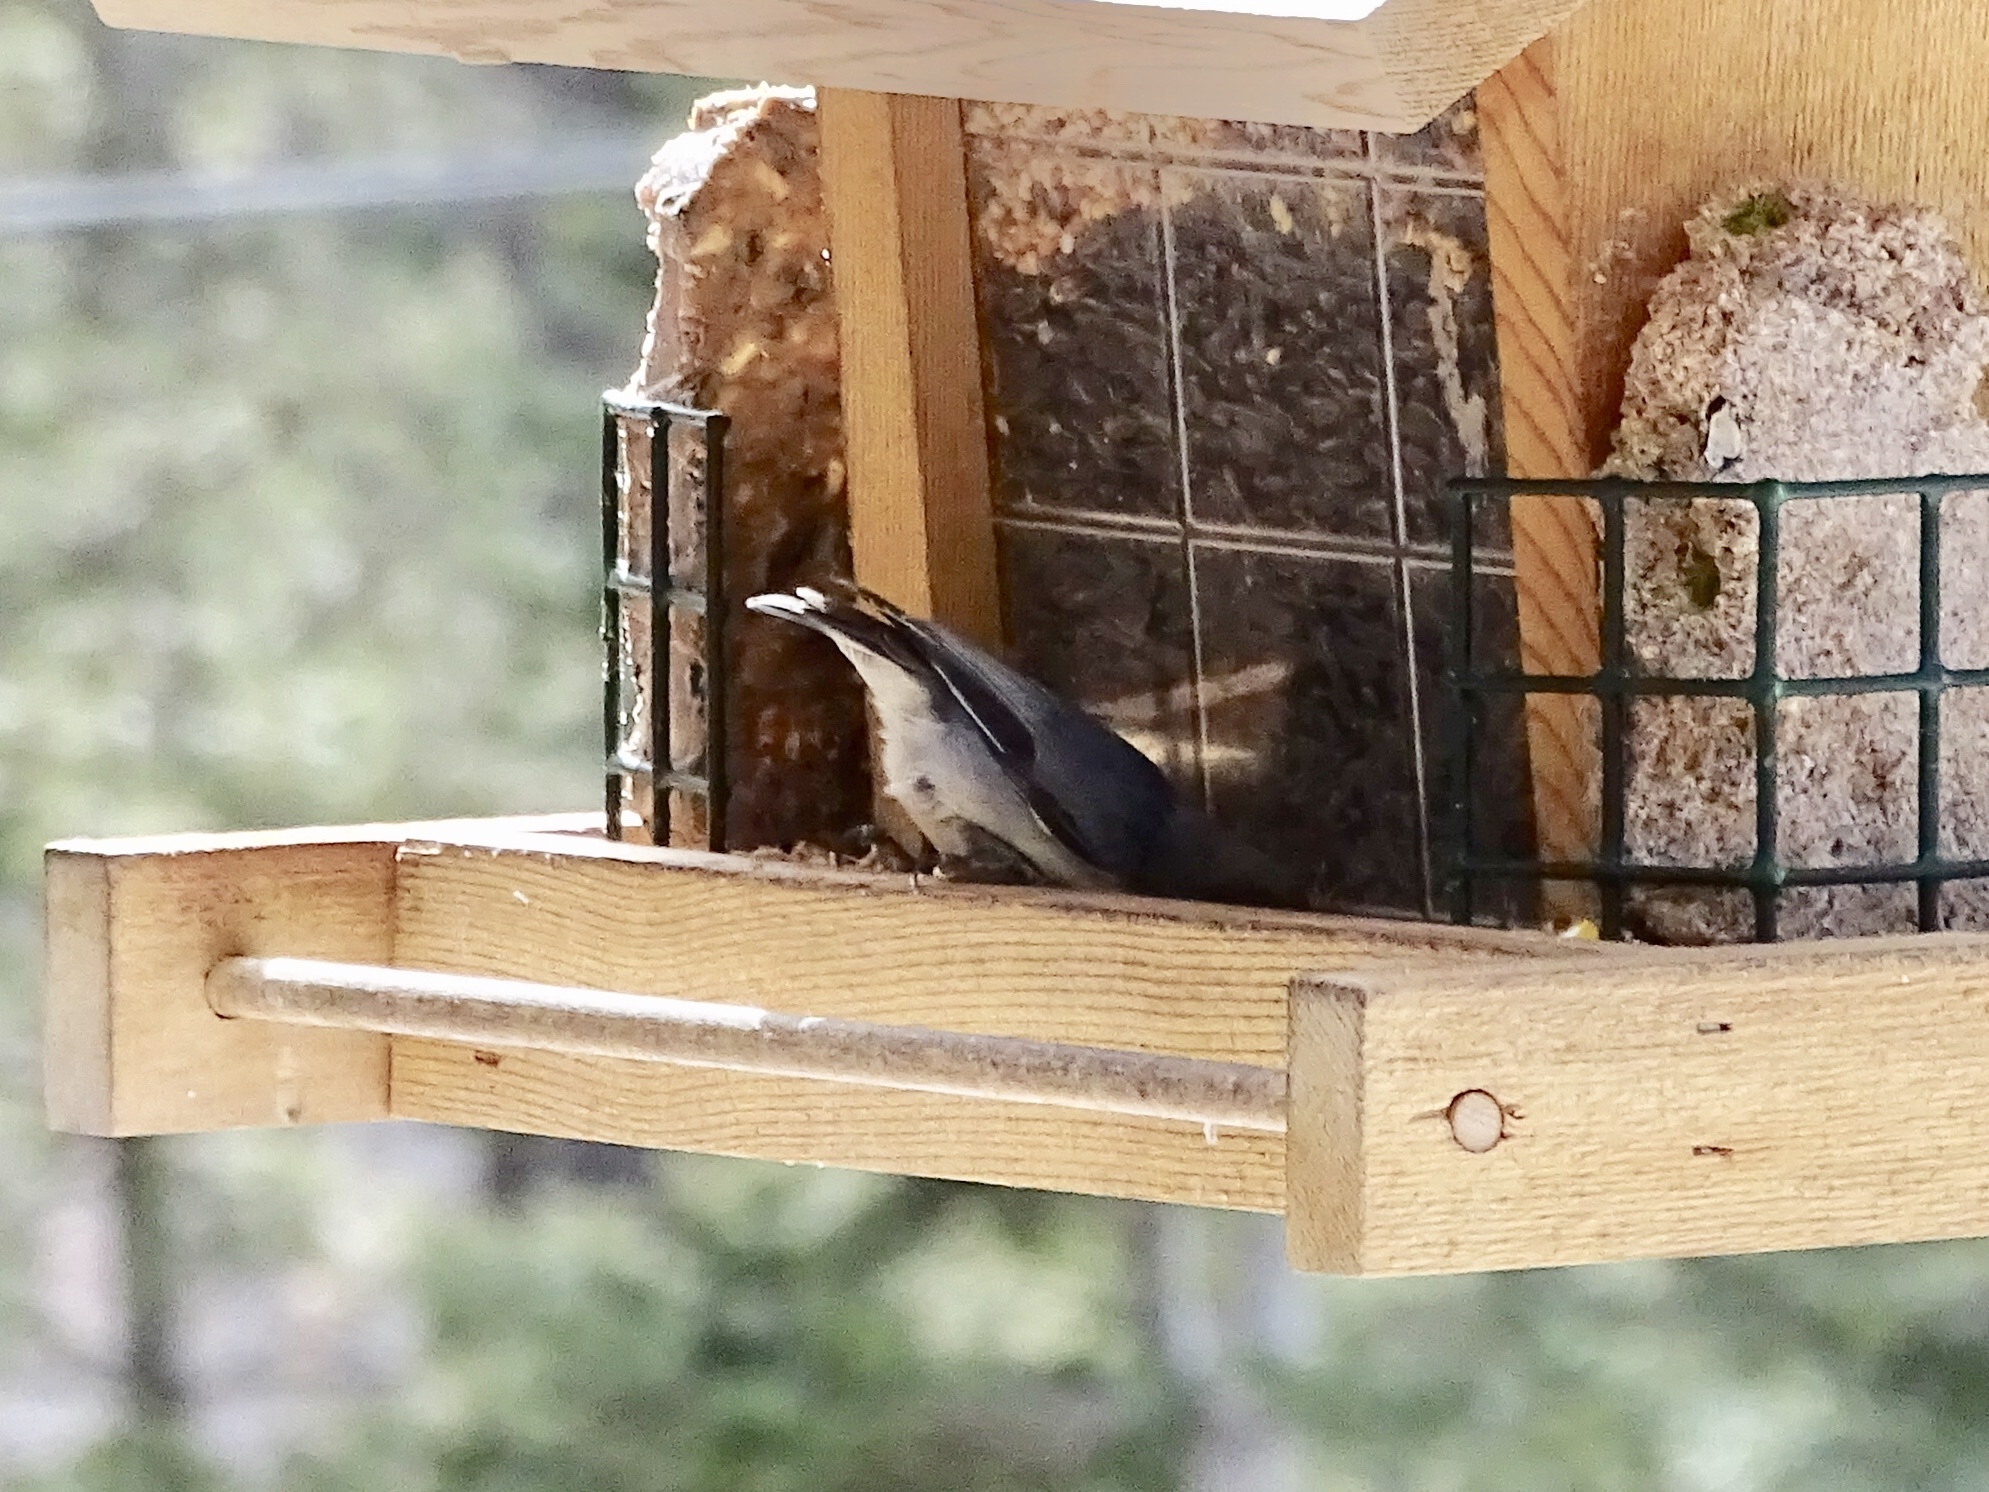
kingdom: Animalia
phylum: Chordata
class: Aves
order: Passeriformes
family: Sittidae
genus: Sitta
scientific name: Sitta pygmaea
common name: Pygmy nuthatch
